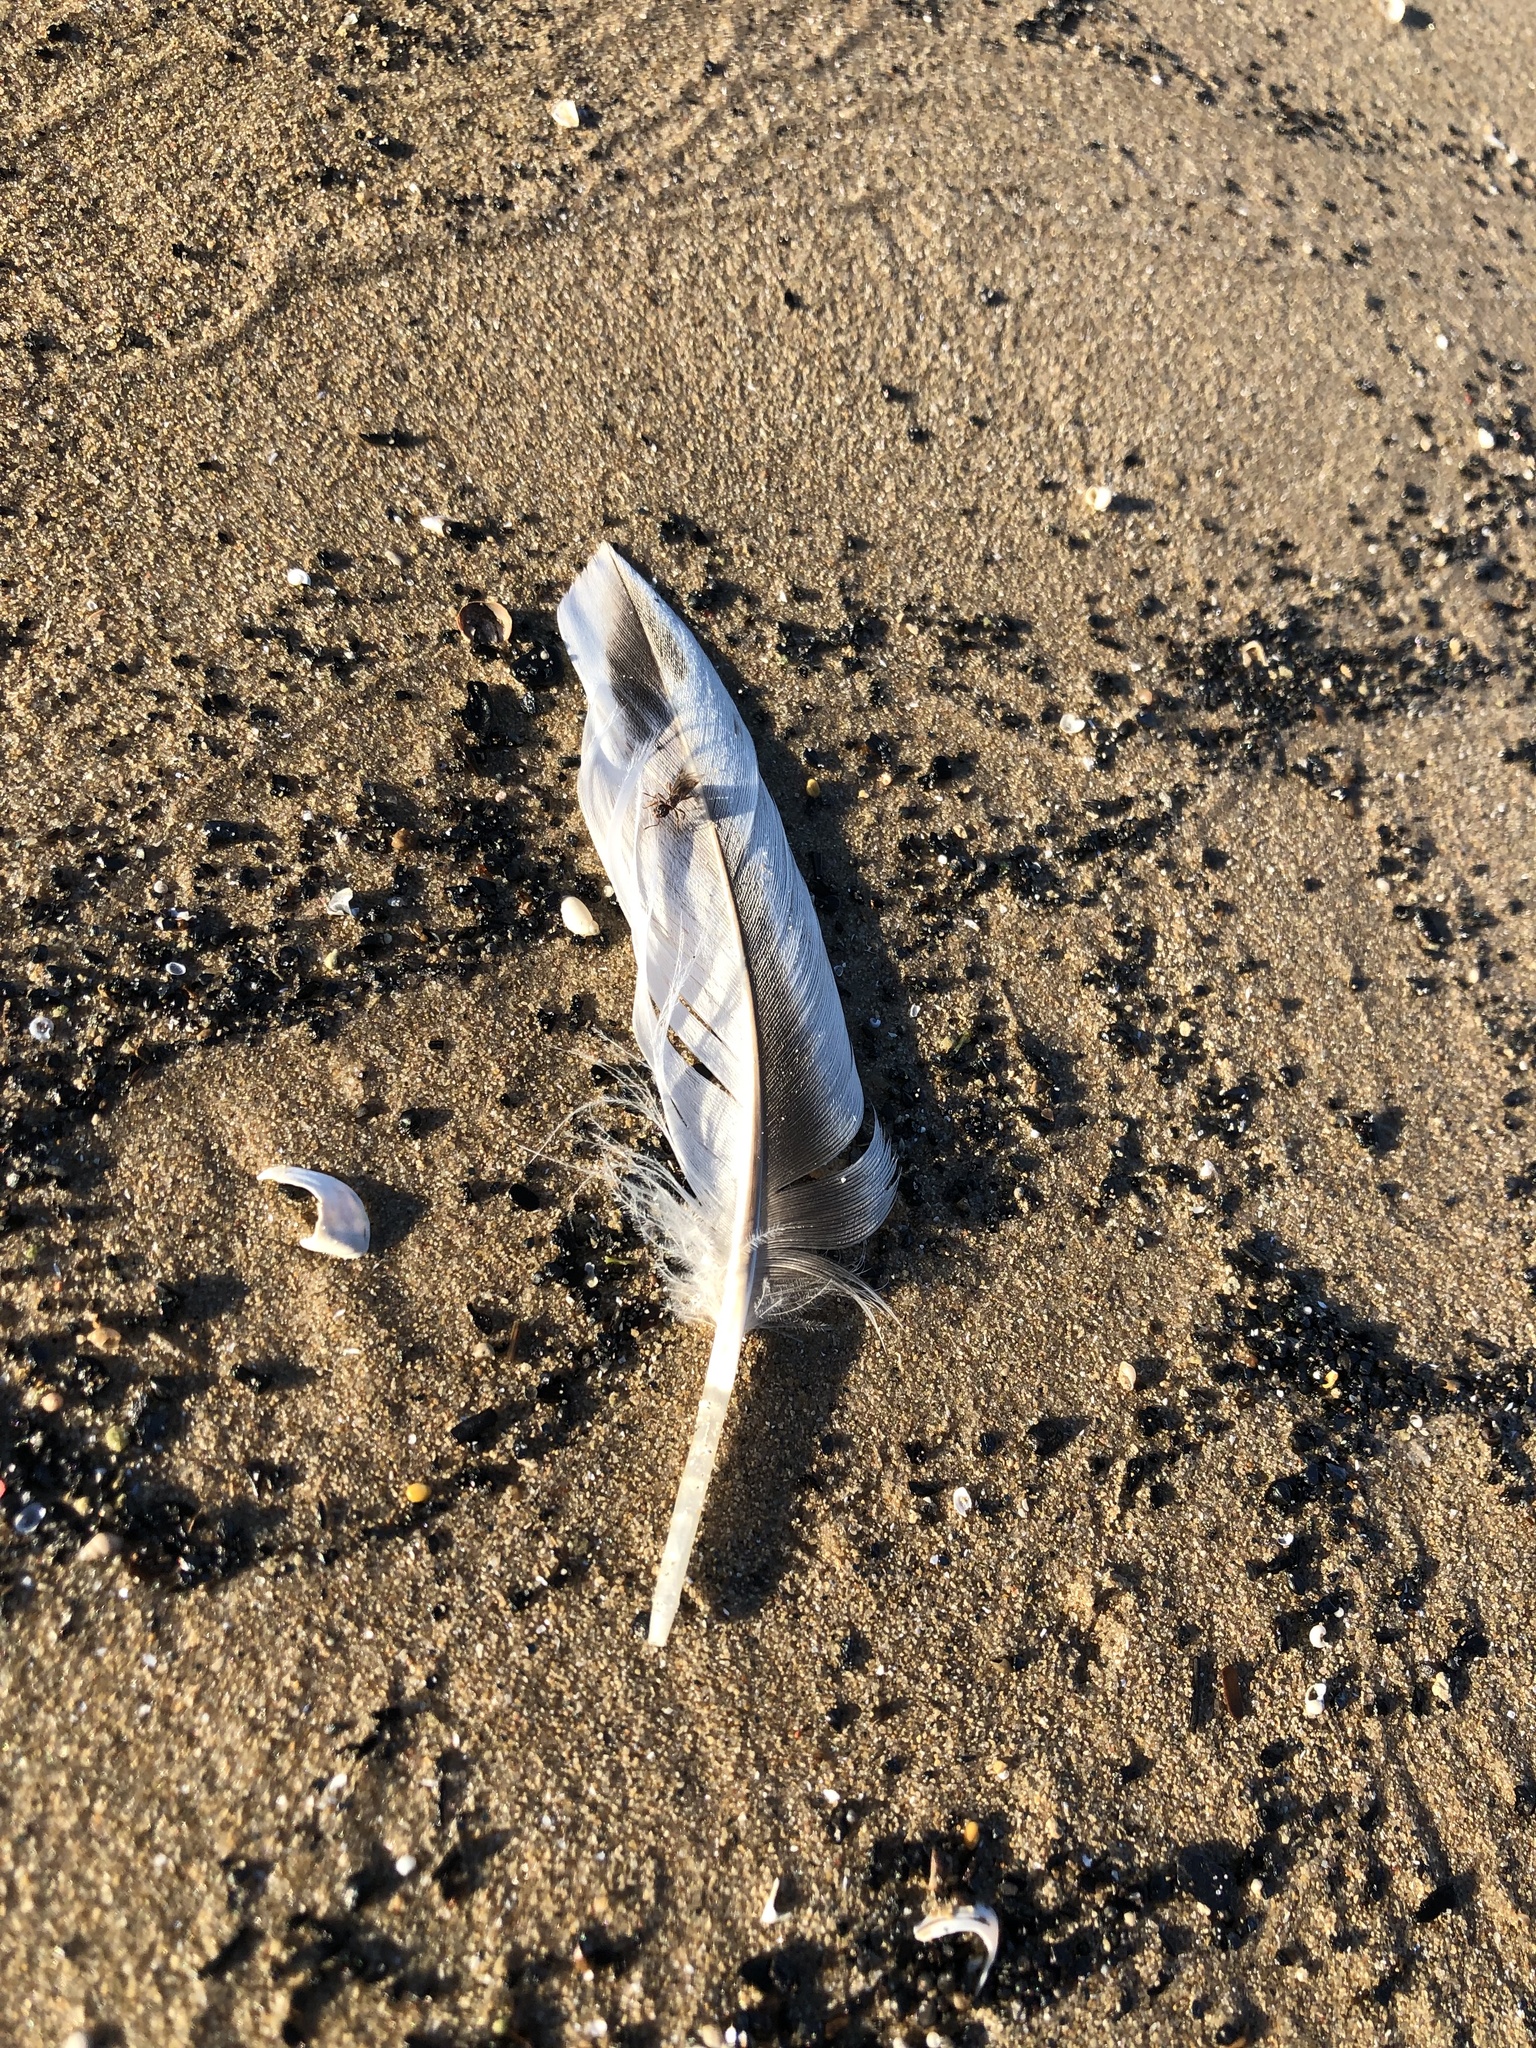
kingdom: Animalia
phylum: Chordata
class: Aves
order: Anseriformes
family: Anatidae
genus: Anas
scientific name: Anas platyrhynchos
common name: Mallard
